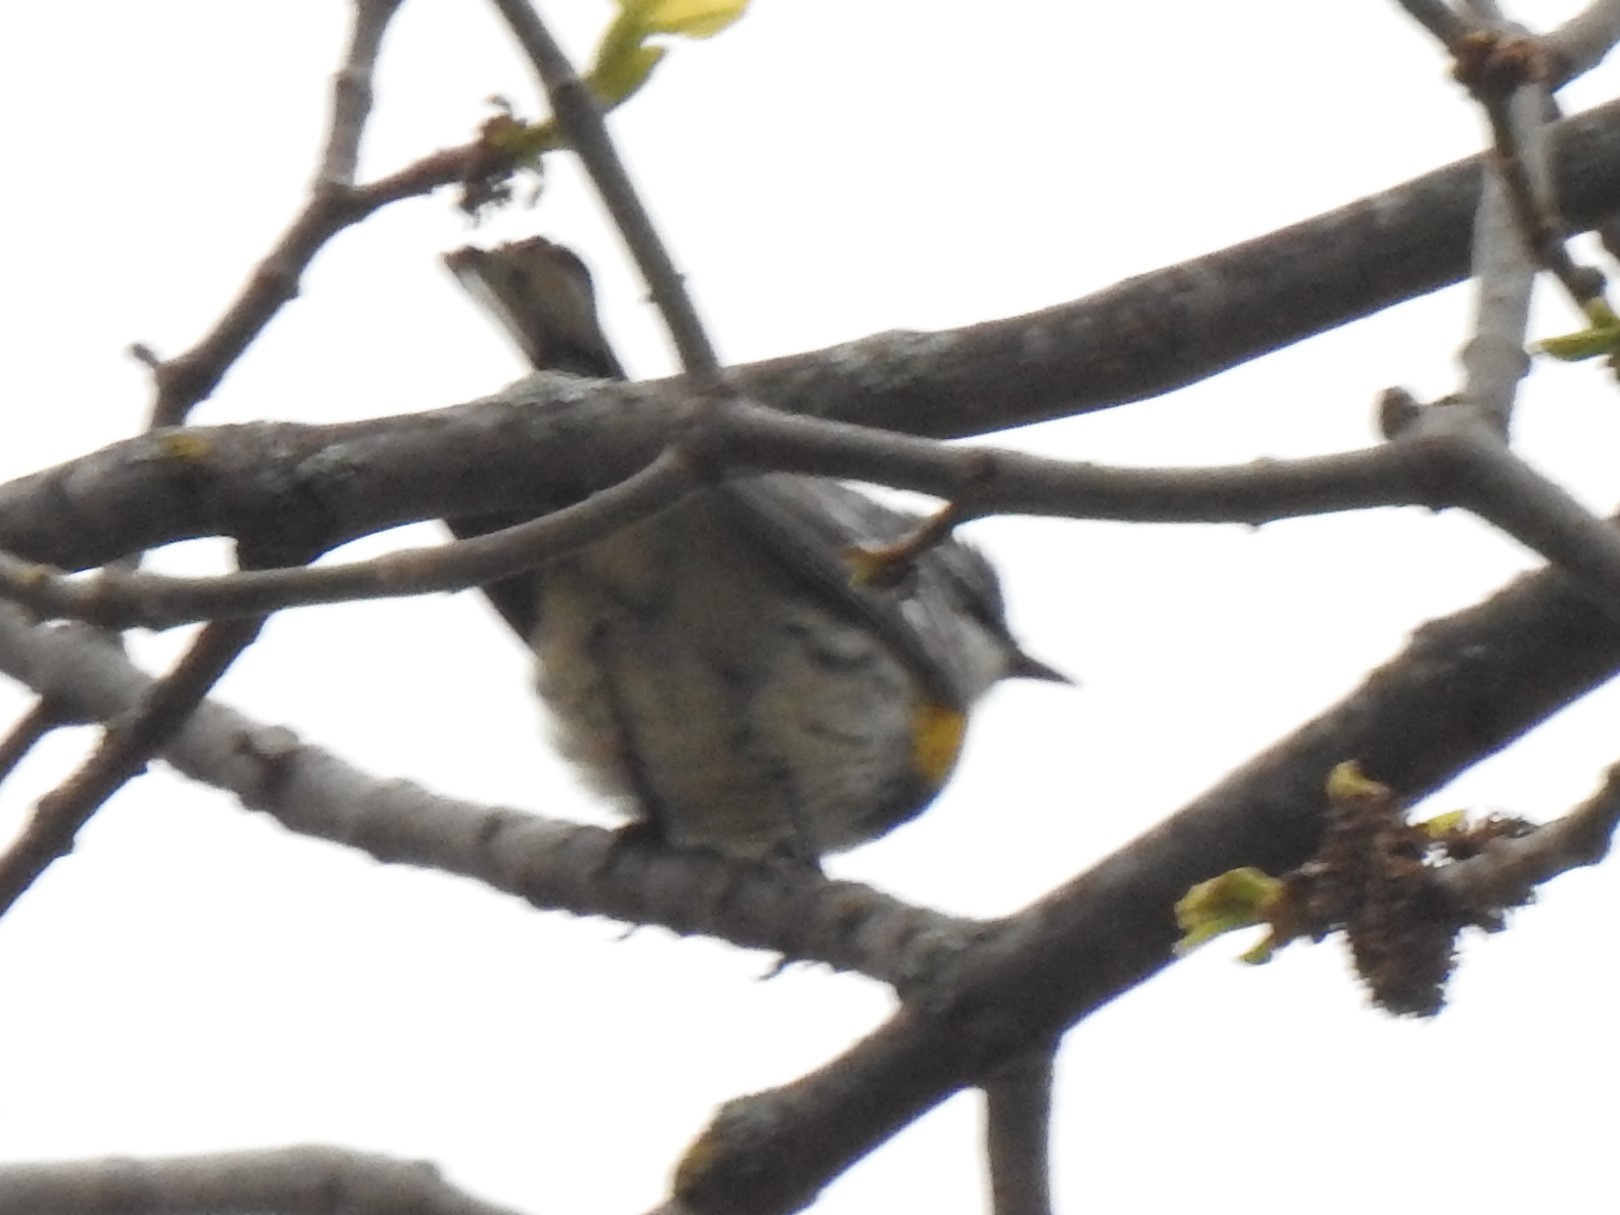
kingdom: Animalia
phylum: Chordata
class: Aves
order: Passeriformes
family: Parulidae
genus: Setophaga
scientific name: Setophaga coronata
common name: Myrtle warbler
